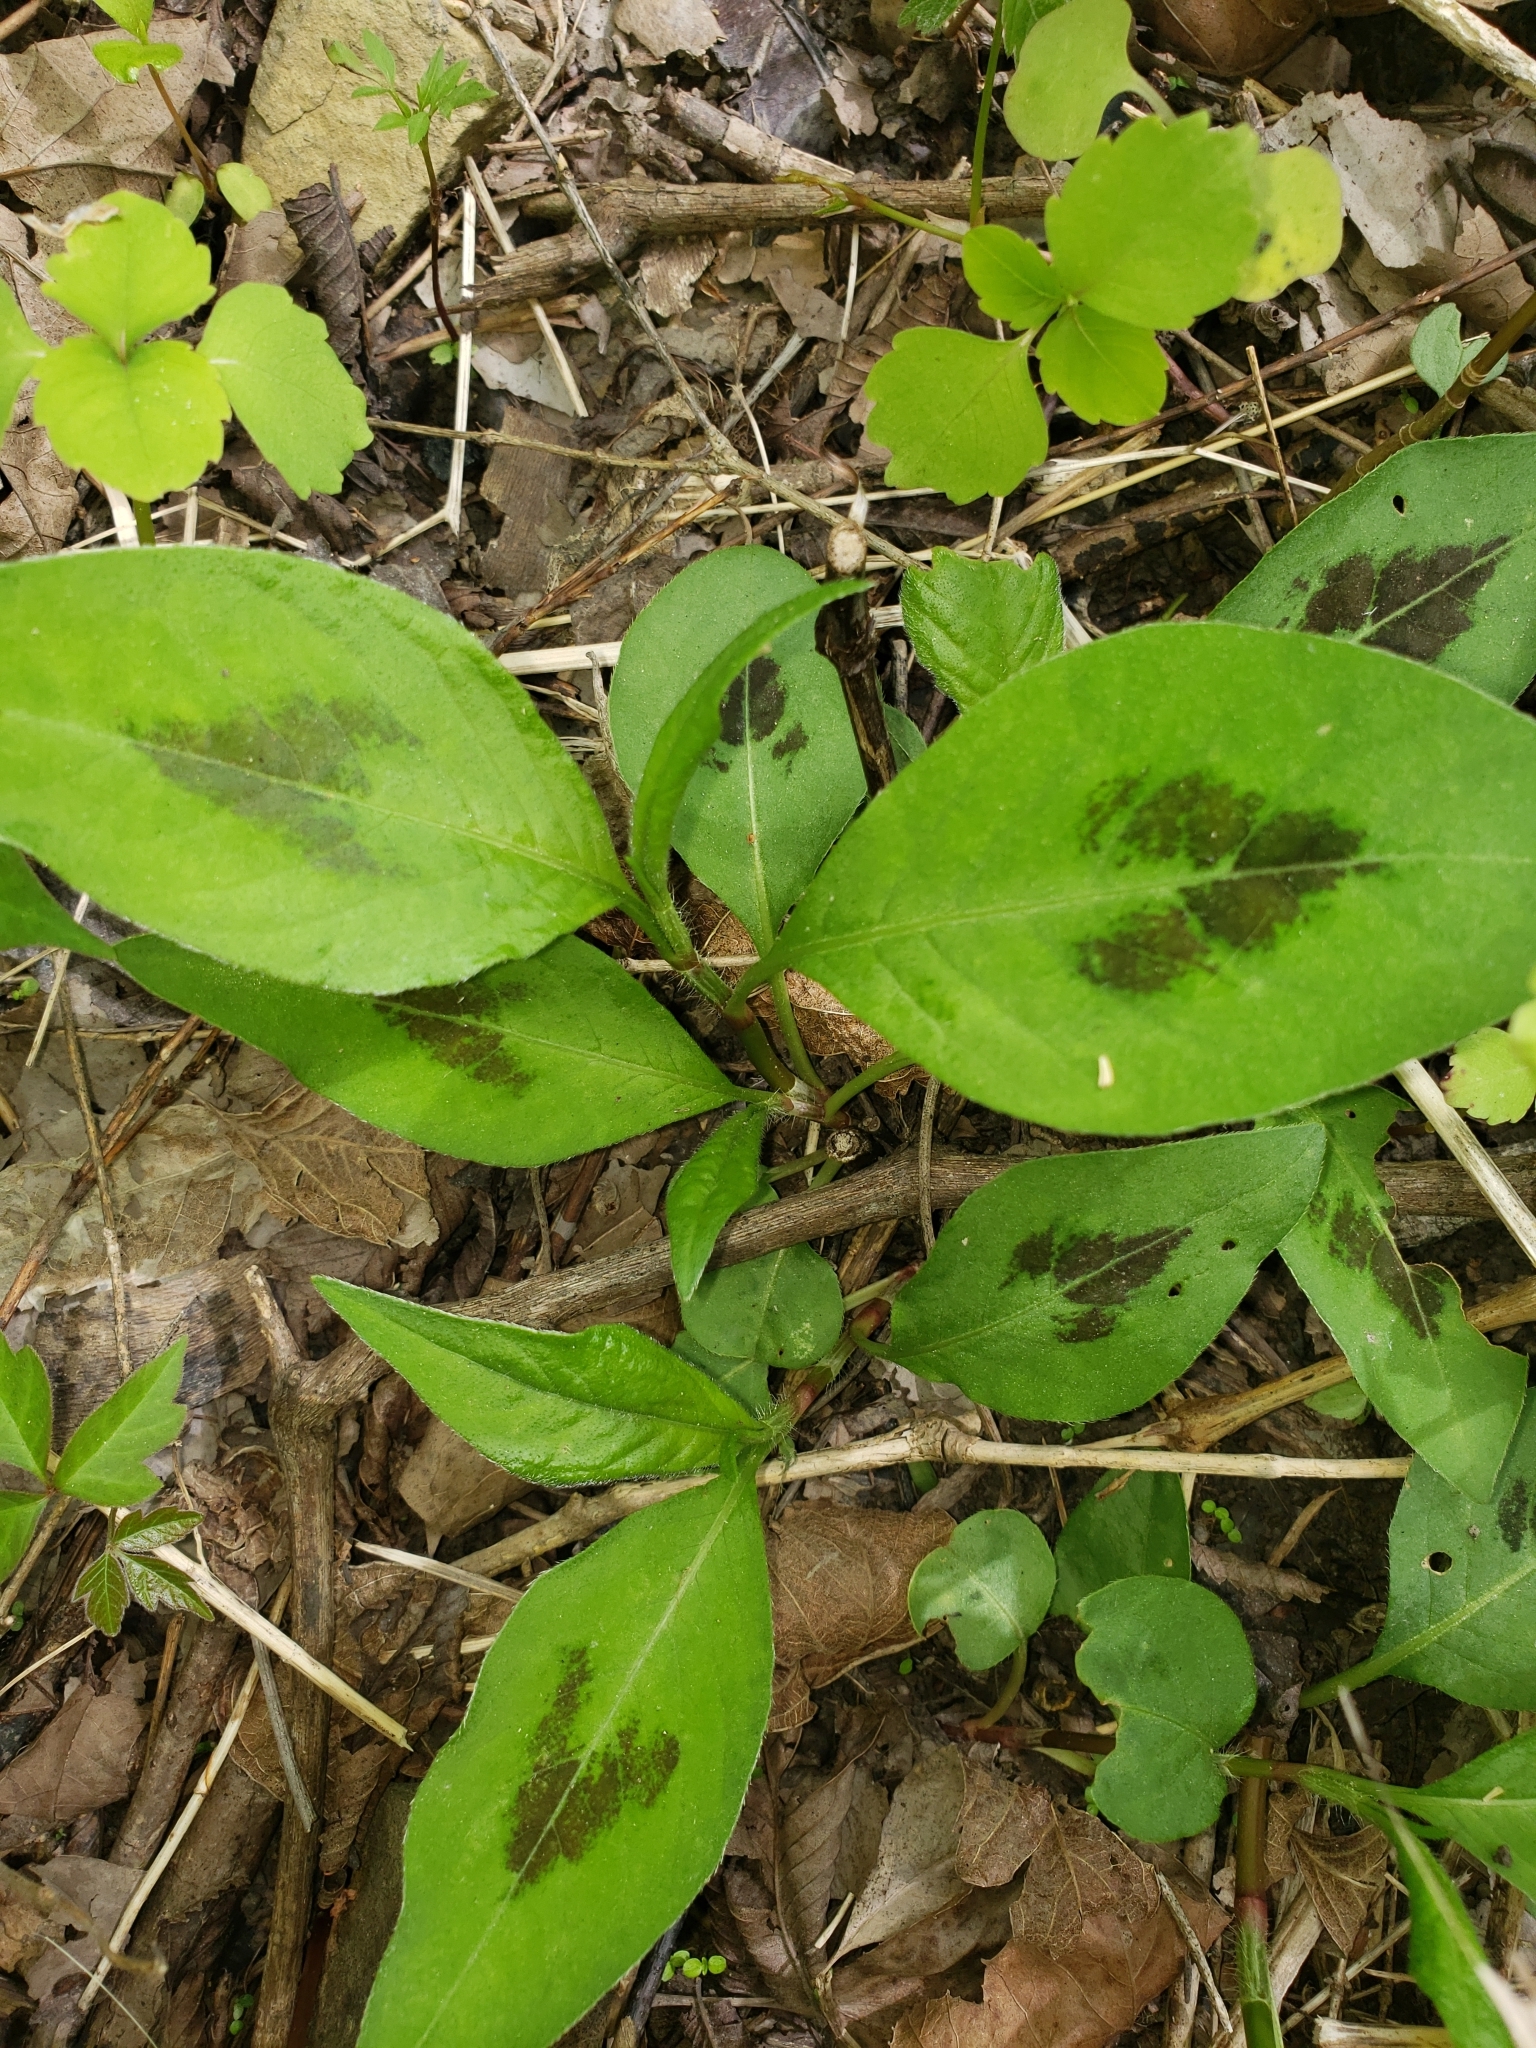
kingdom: Plantae
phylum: Tracheophyta
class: Magnoliopsida
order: Caryophyllales
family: Polygonaceae
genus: Persicaria
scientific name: Persicaria virginiana
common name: Jumpseed
